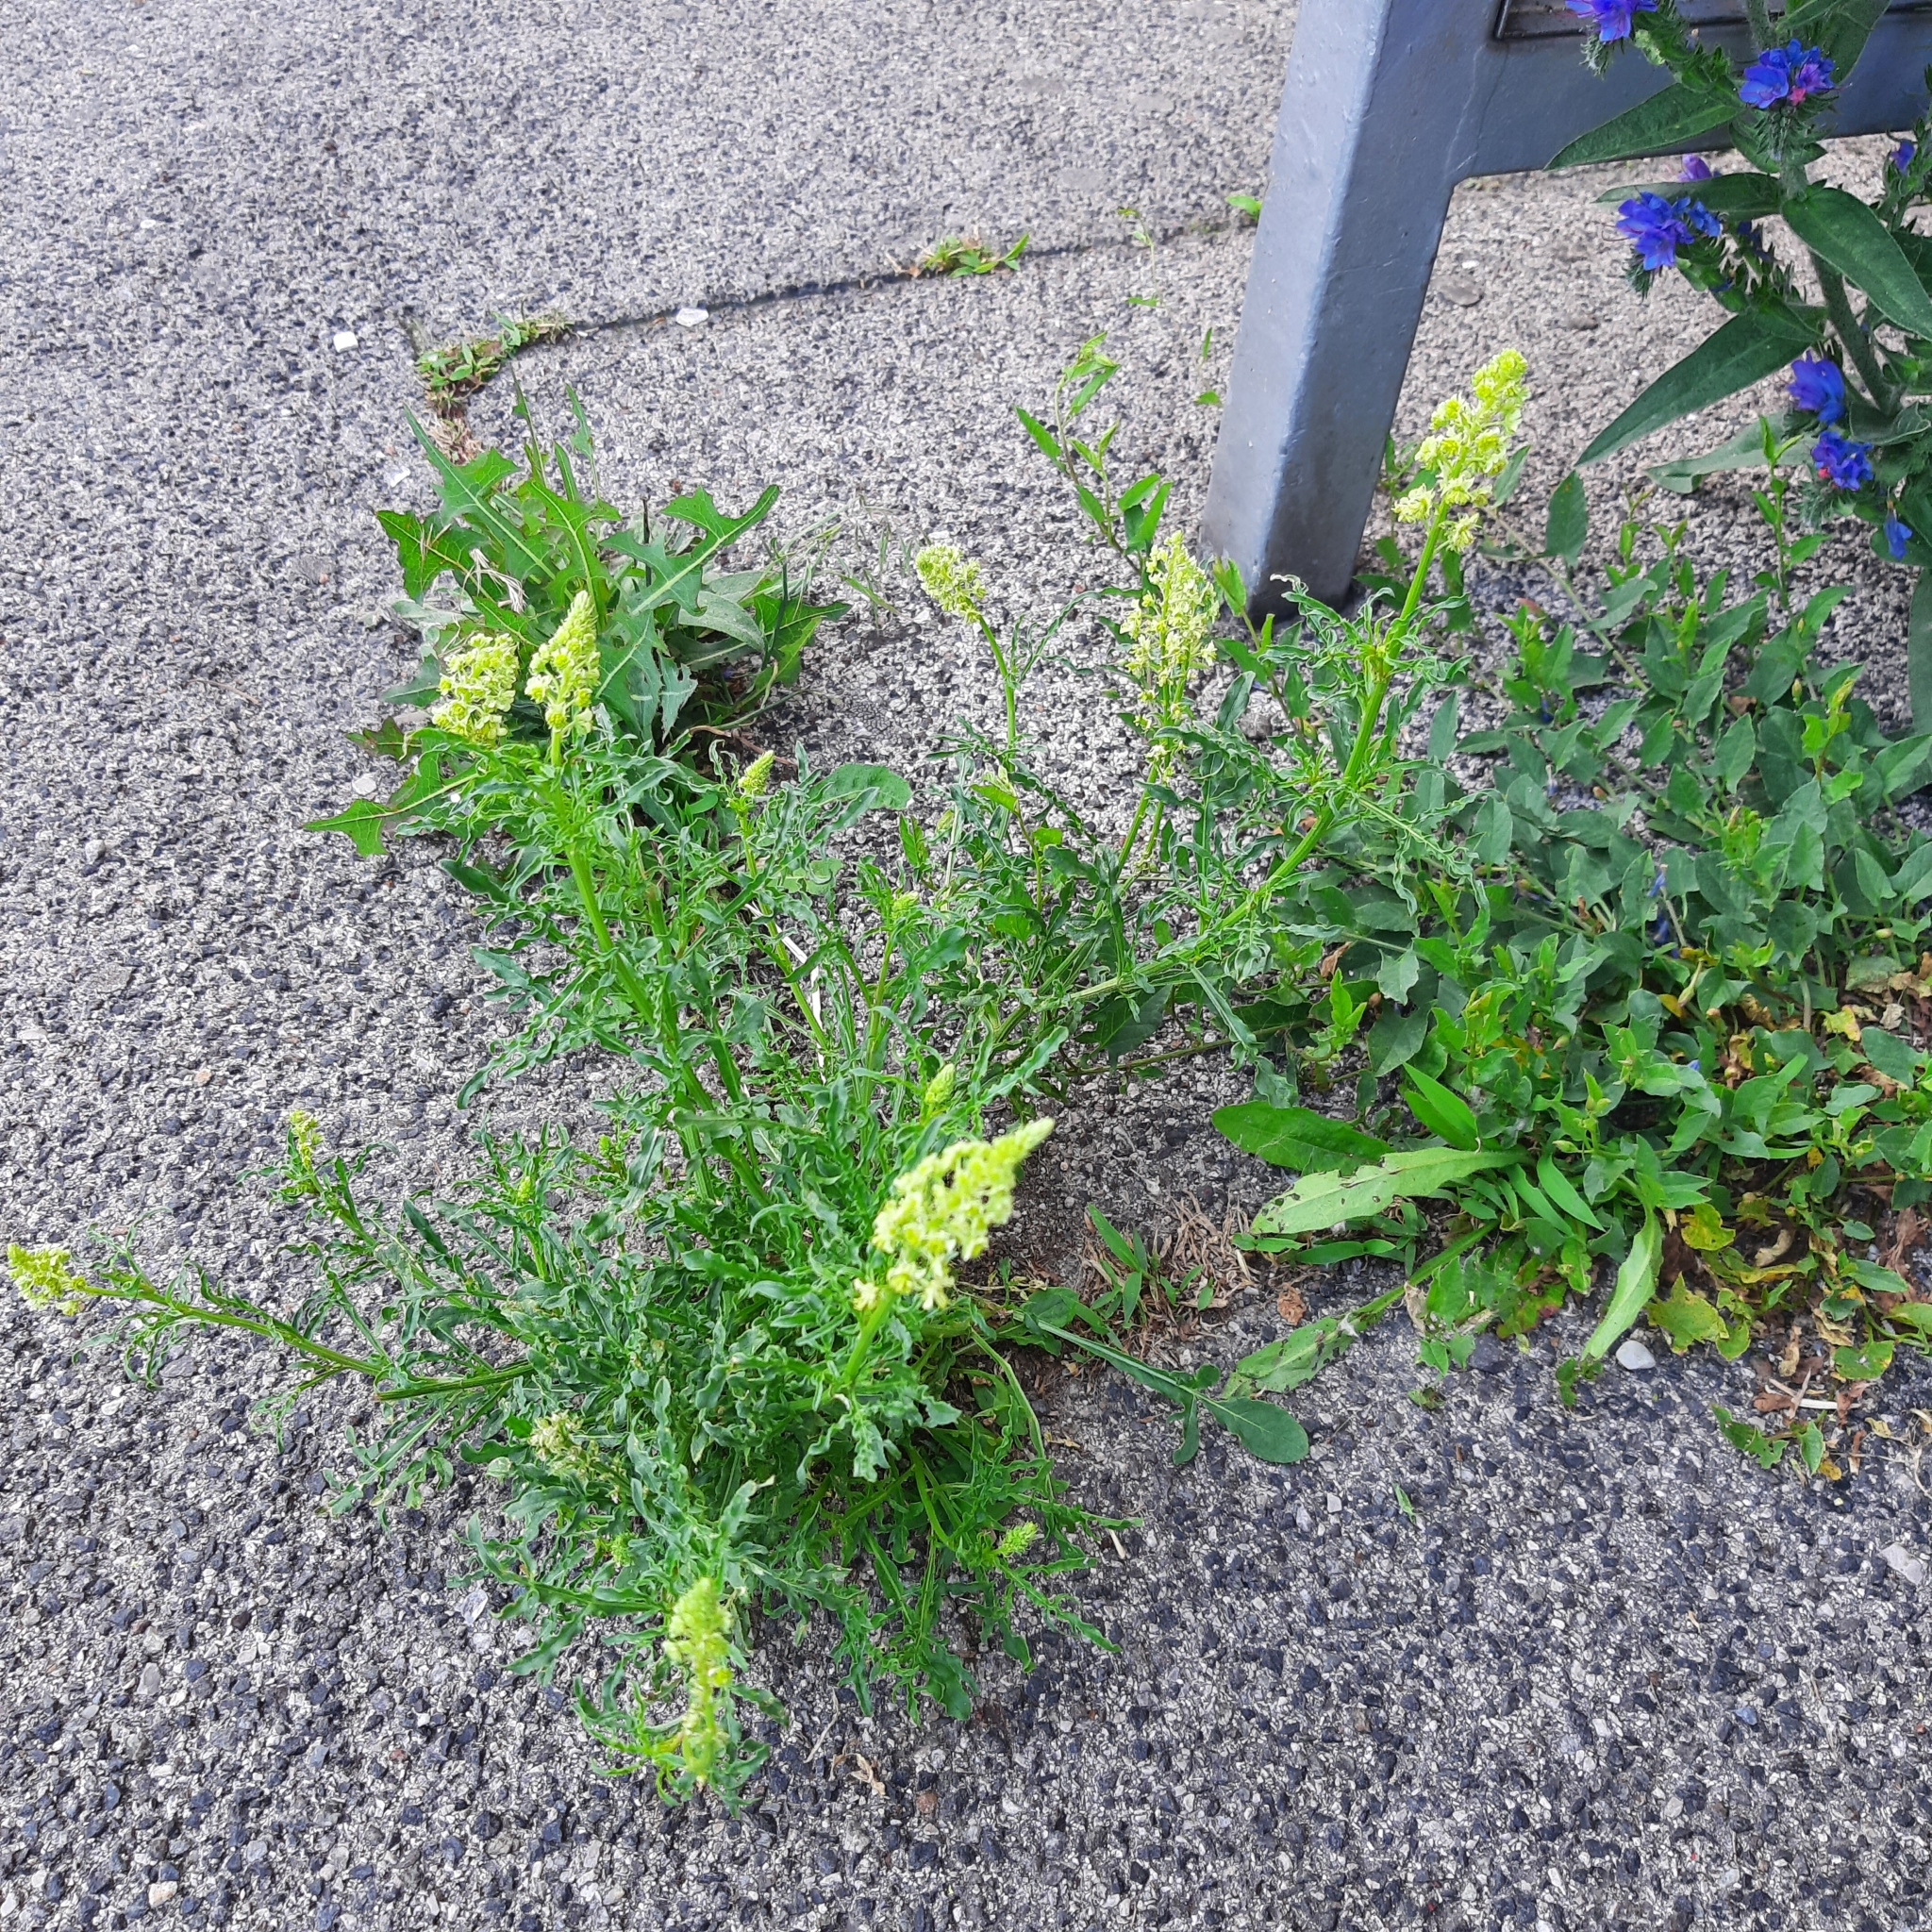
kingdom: Plantae
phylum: Tracheophyta
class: Magnoliopsida
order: Boraginales
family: Boraginaceae
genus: Echium
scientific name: Echium vulgare
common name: Common viper's bugloss
